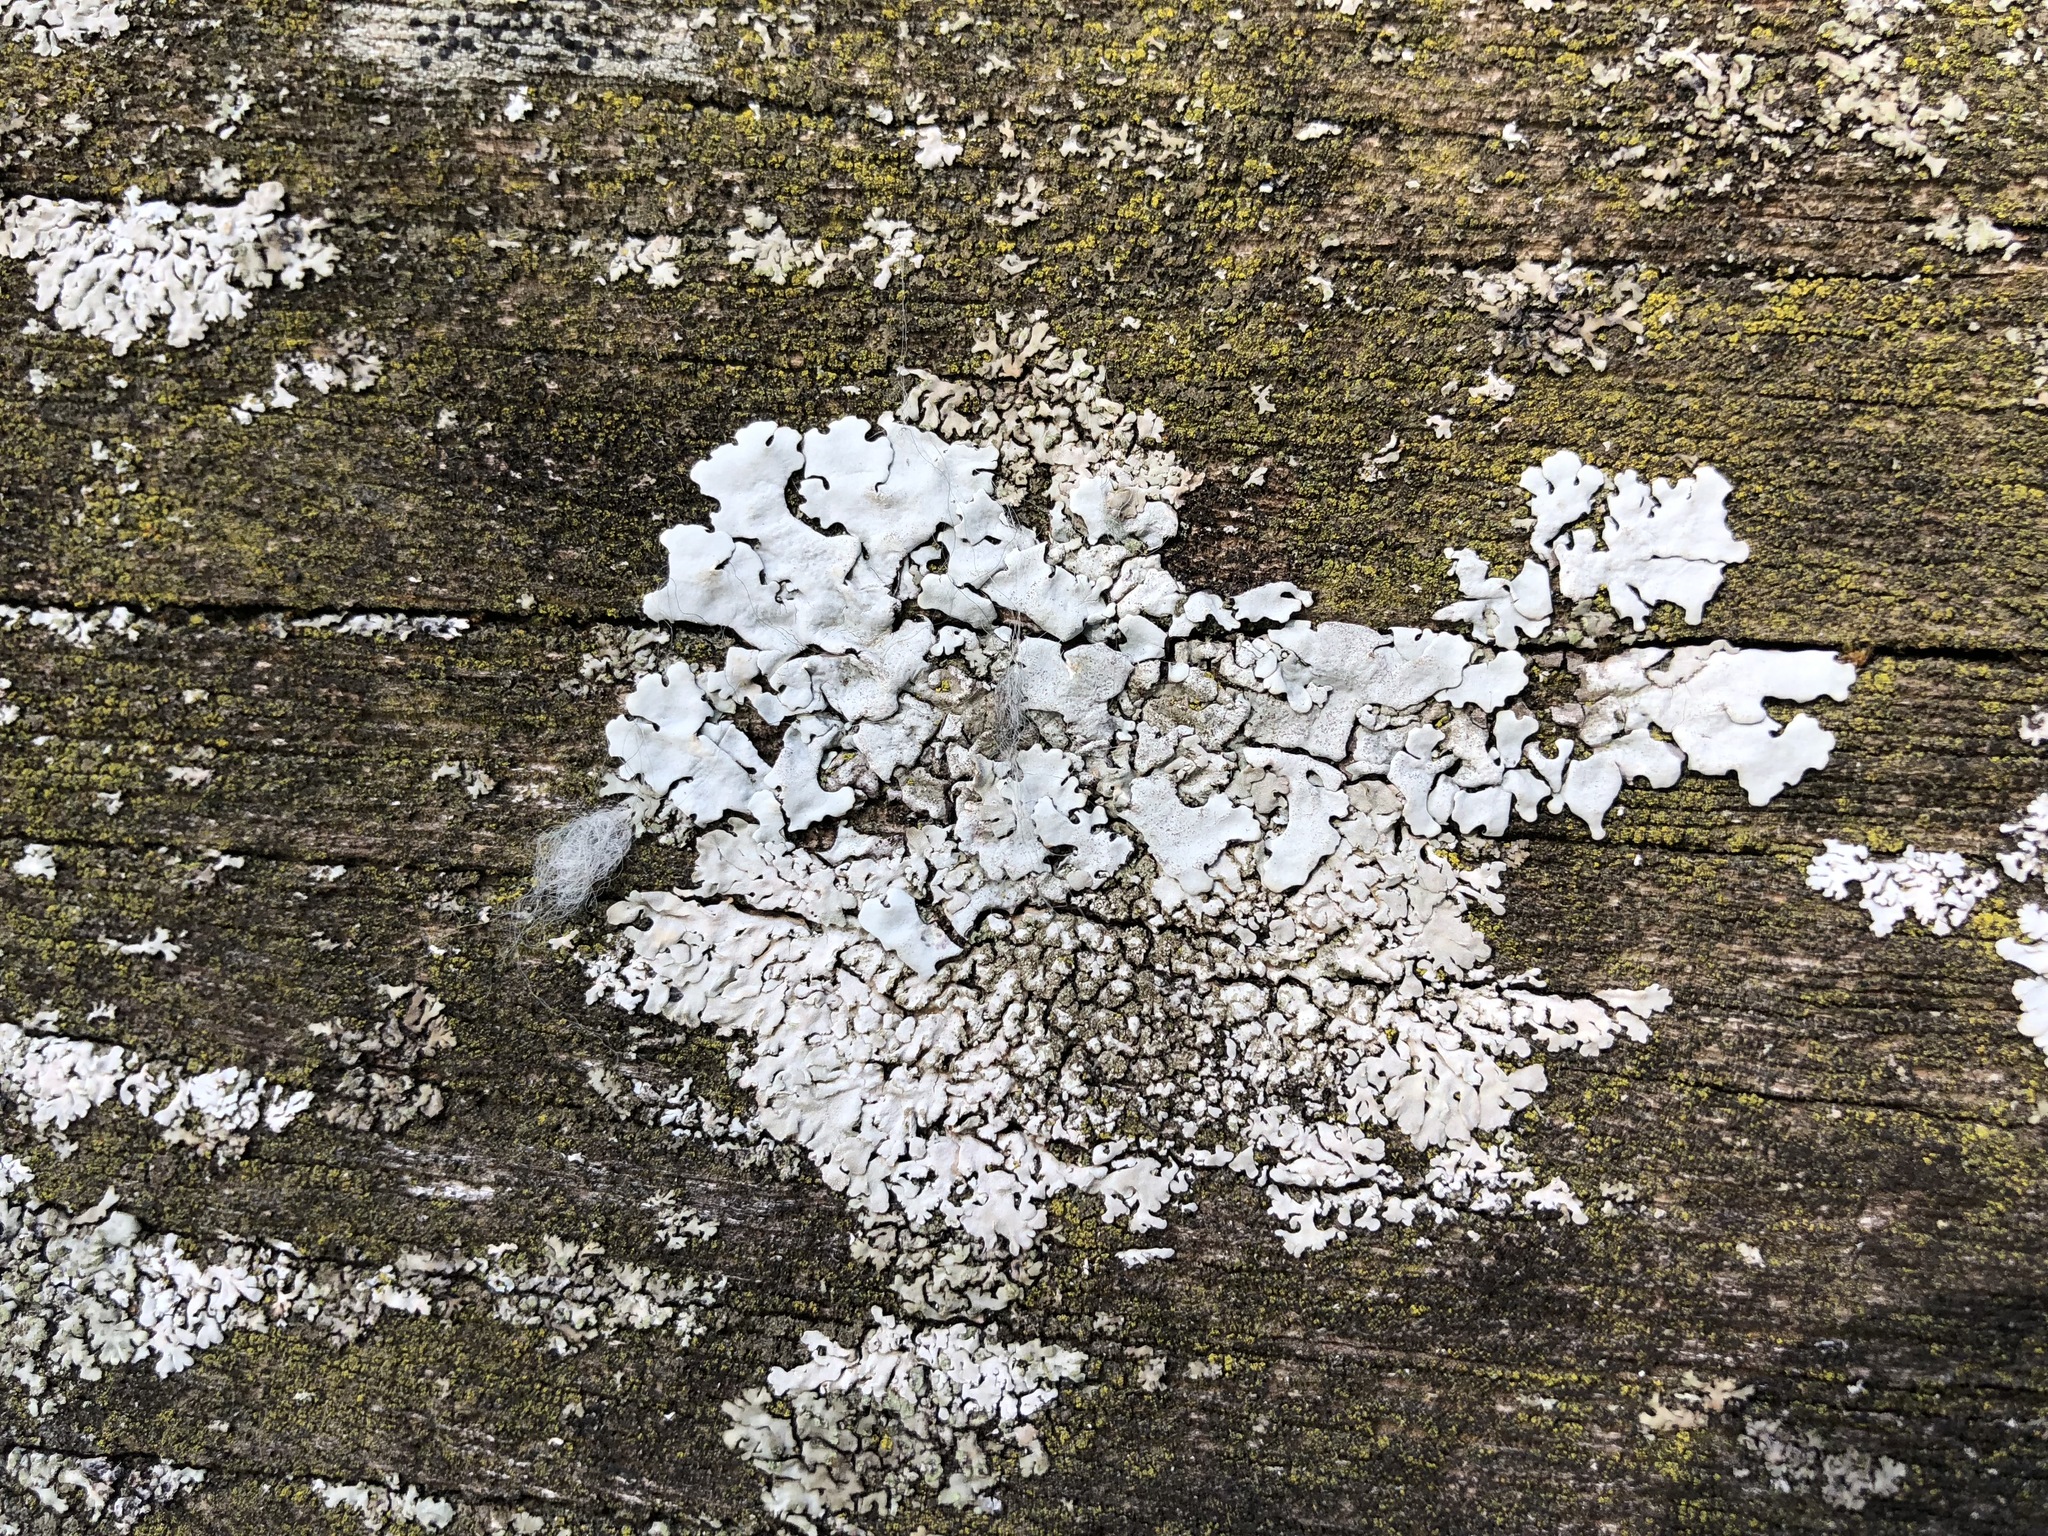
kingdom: Fungi
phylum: Ascomycota
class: Lecanoromycetes
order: Lecanorales
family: Parmeliaceae
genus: Parmelina
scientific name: Parmelina tiliacea
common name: Linden shield lichen
